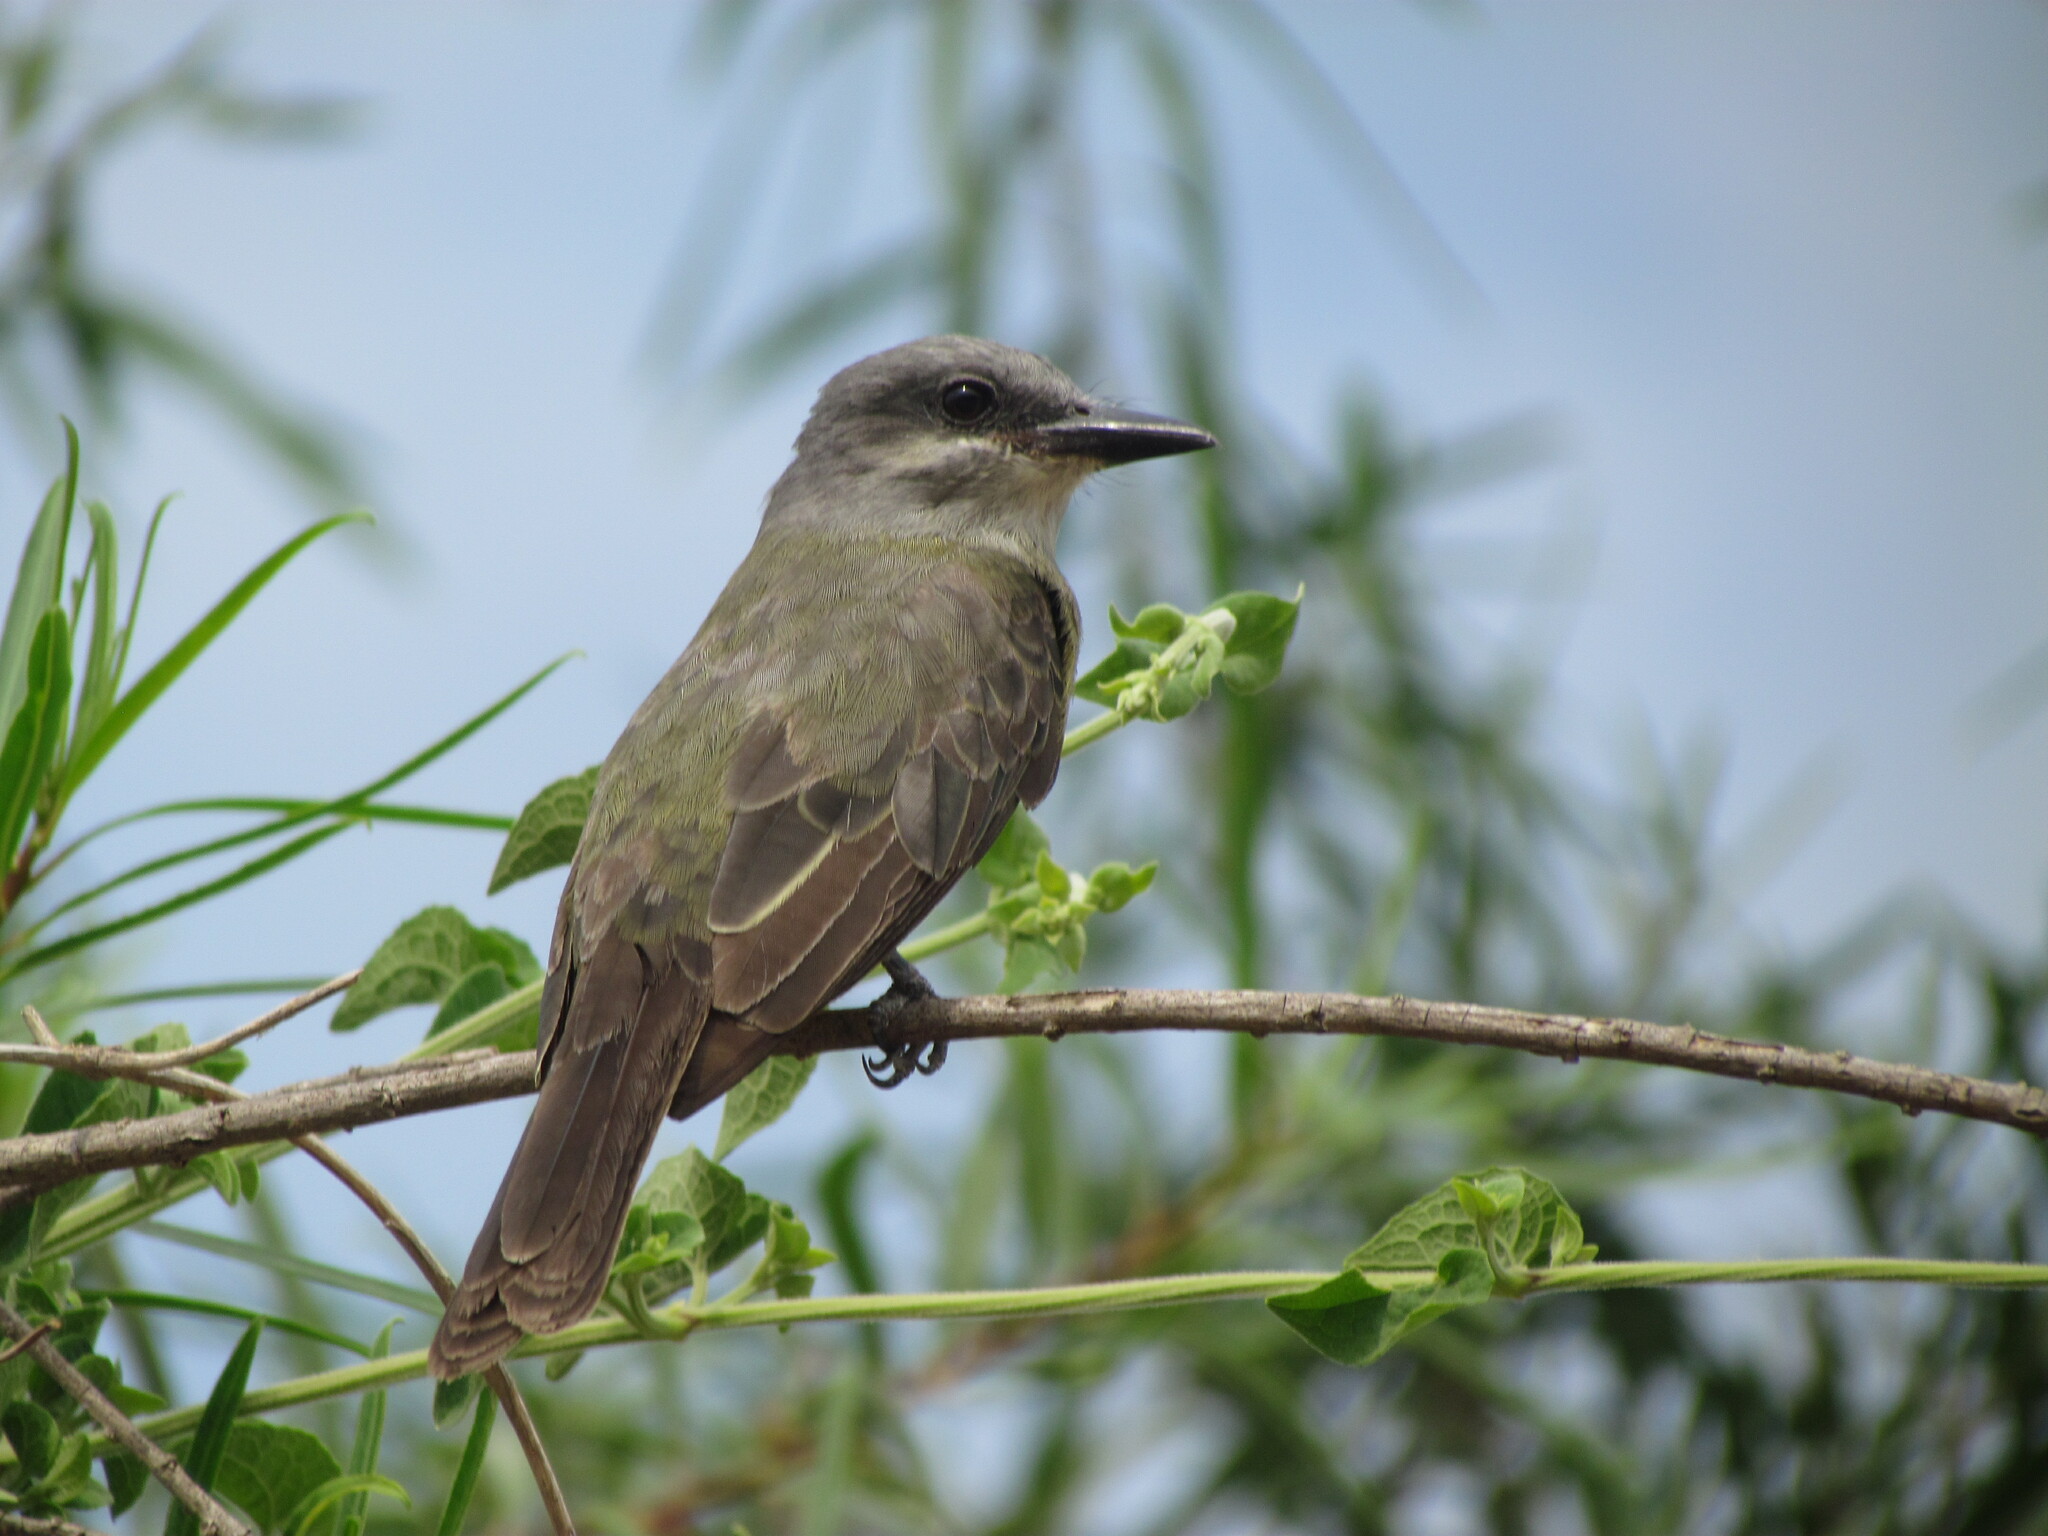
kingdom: Animalia
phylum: Chordata
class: Aves
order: Passeriformes
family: Tyrannidae
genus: Tyrannus
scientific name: Tyrannus melancholicus
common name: Tropical kingbird
